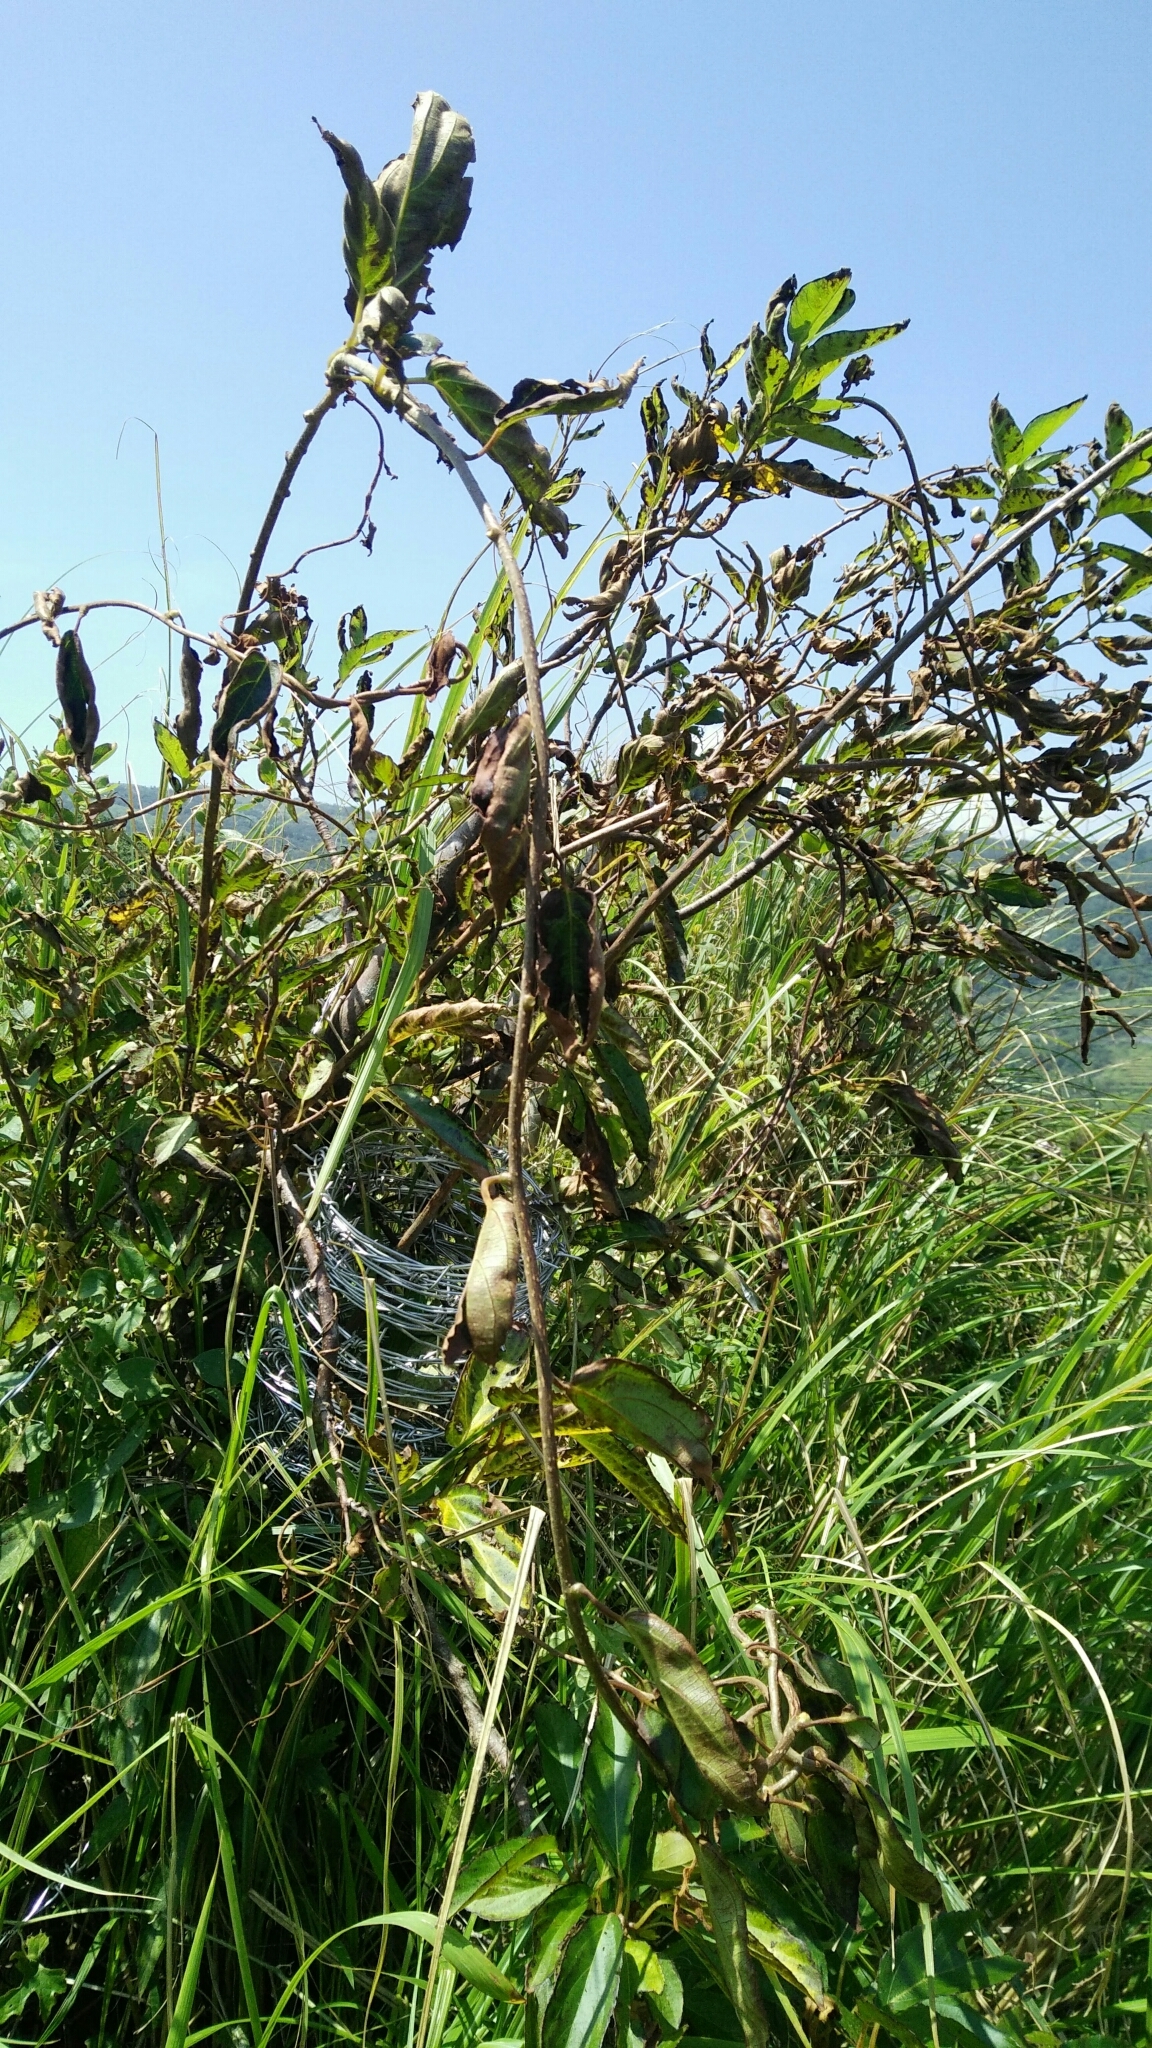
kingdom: Plantae
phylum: Tracheophyta
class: Magnoliopsida
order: Ericales
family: Actinidiaceae
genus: Actinidia
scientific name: Actinidia rufa
